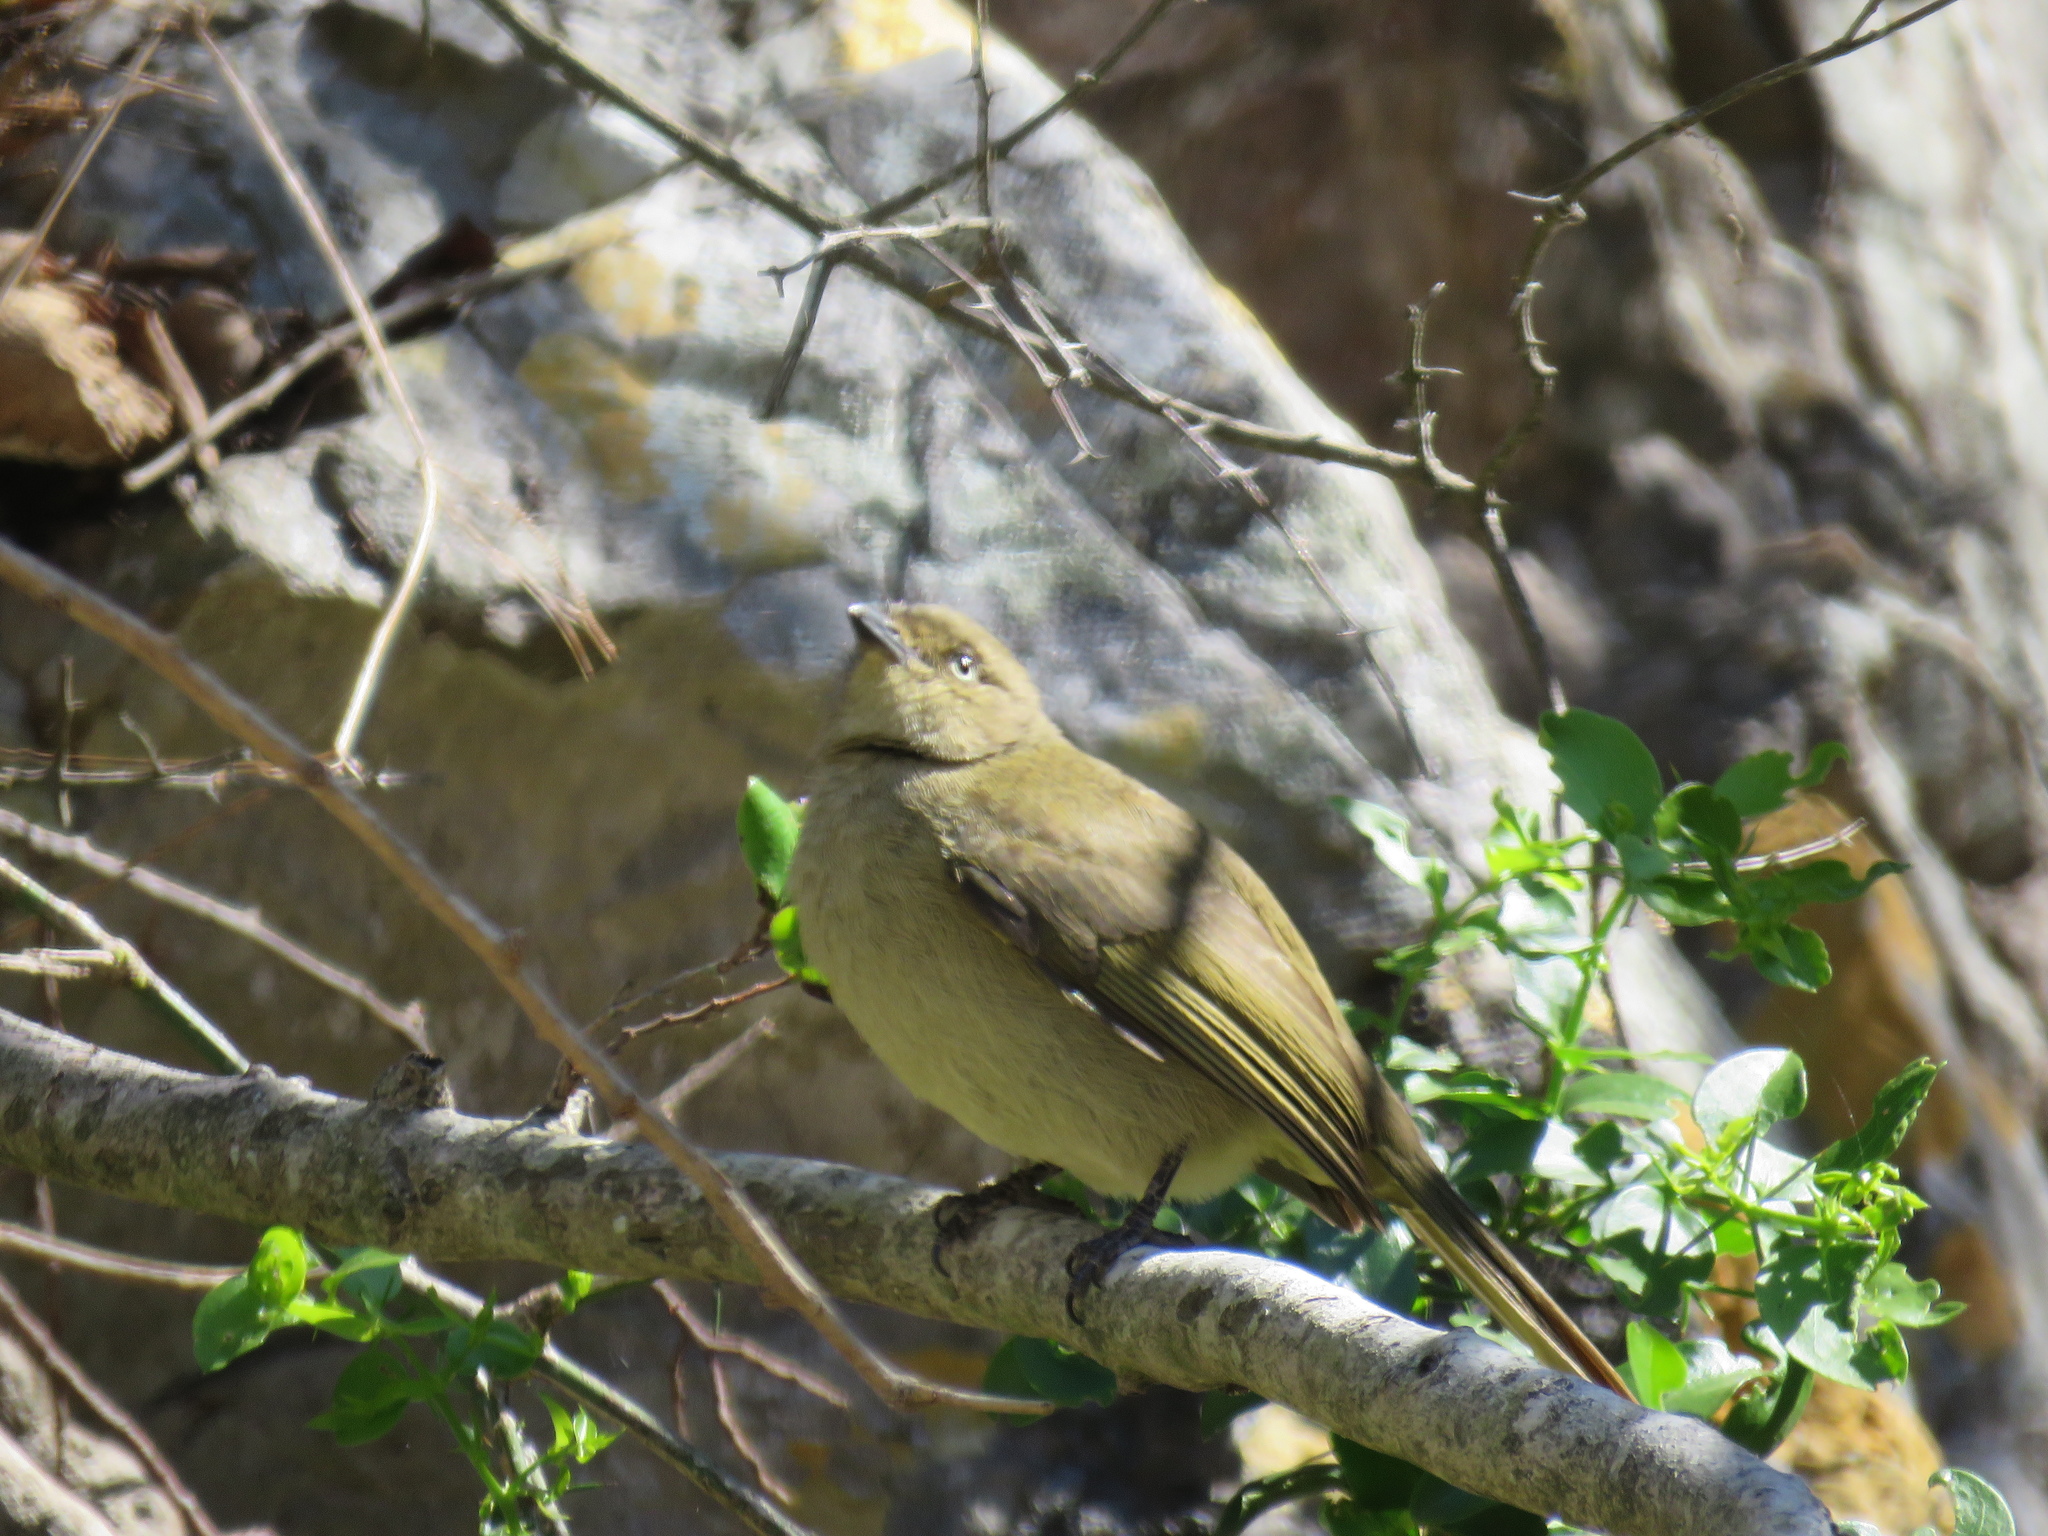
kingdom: Animalia
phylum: Chordata
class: Aves
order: Passeriformes
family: Pycnonotidae
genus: Andropadus
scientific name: Andropadus importunus
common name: Sombre greenbul
